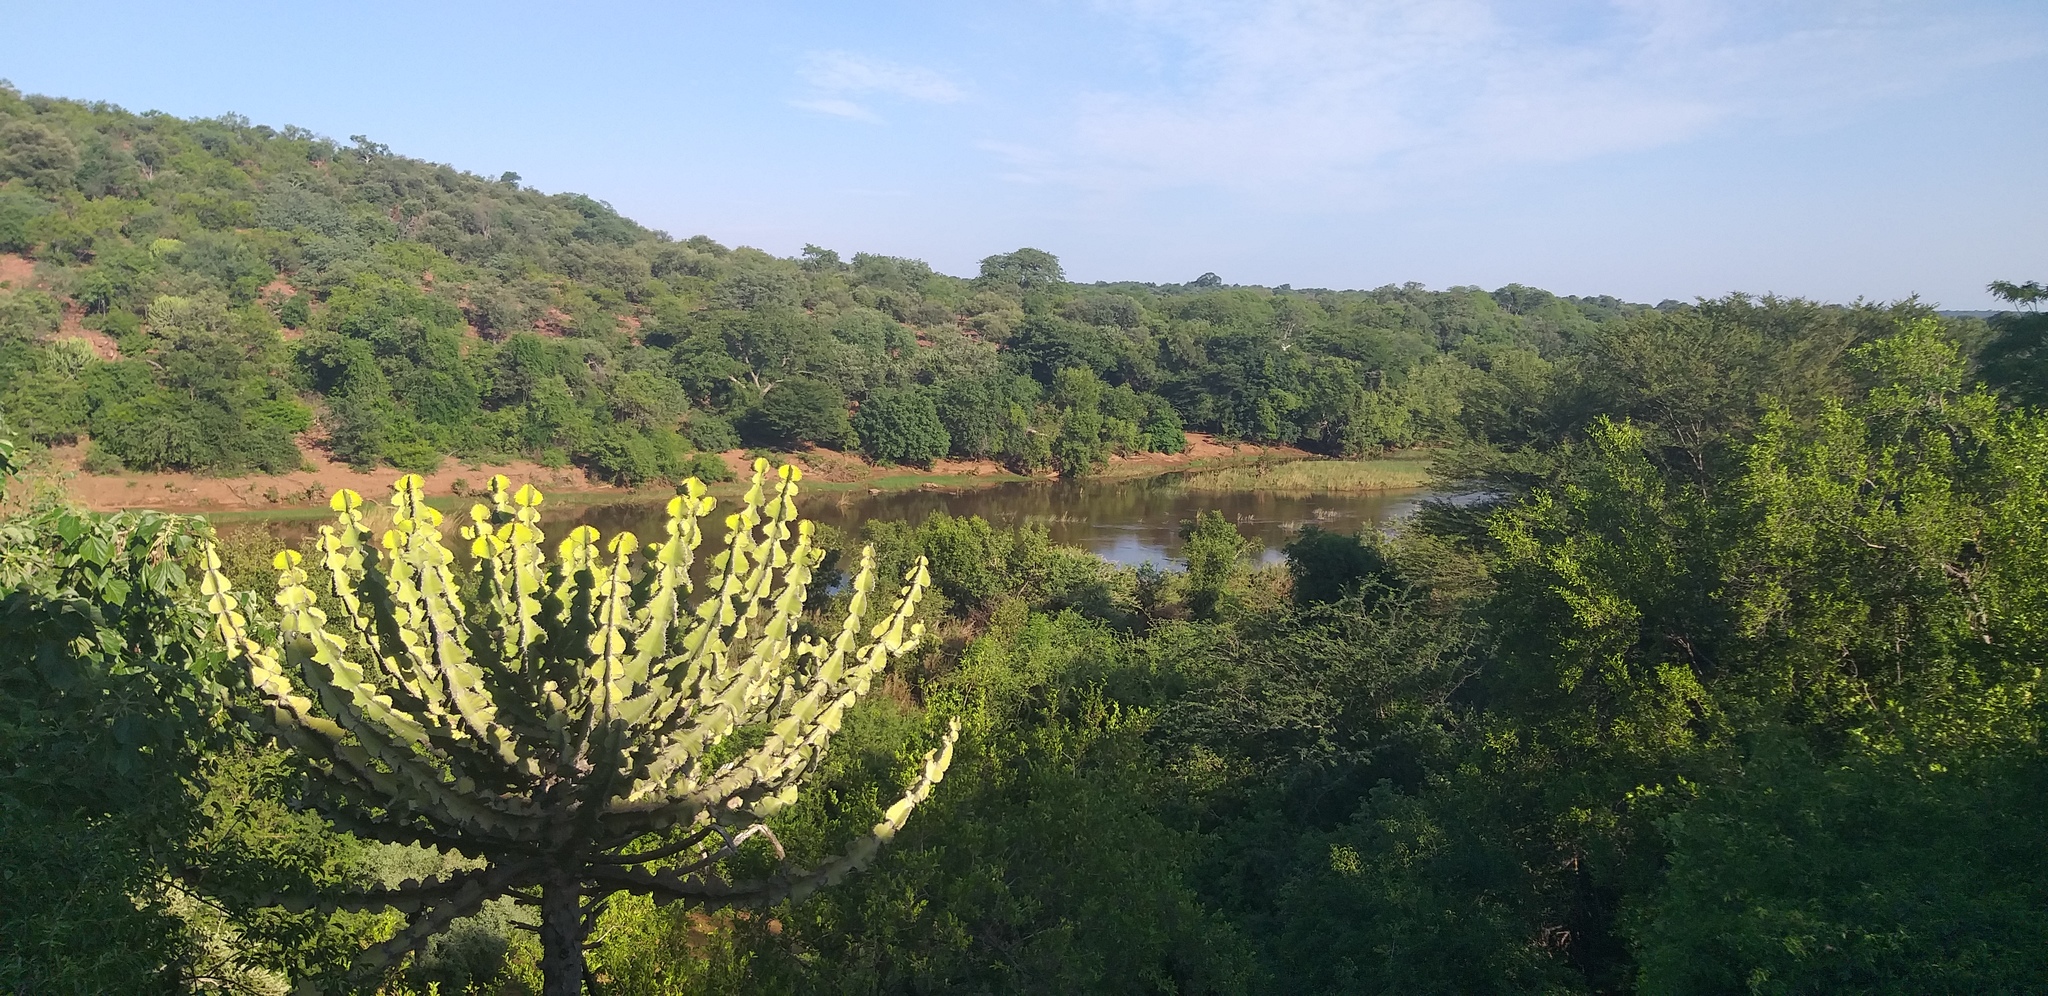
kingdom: Plantae
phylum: Tracheophyta
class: Magnoliopsida
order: Malpighiales
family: Euphorbiaceae
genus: Euphorbia
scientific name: Euphorbia cooperi
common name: Candelabra tree
